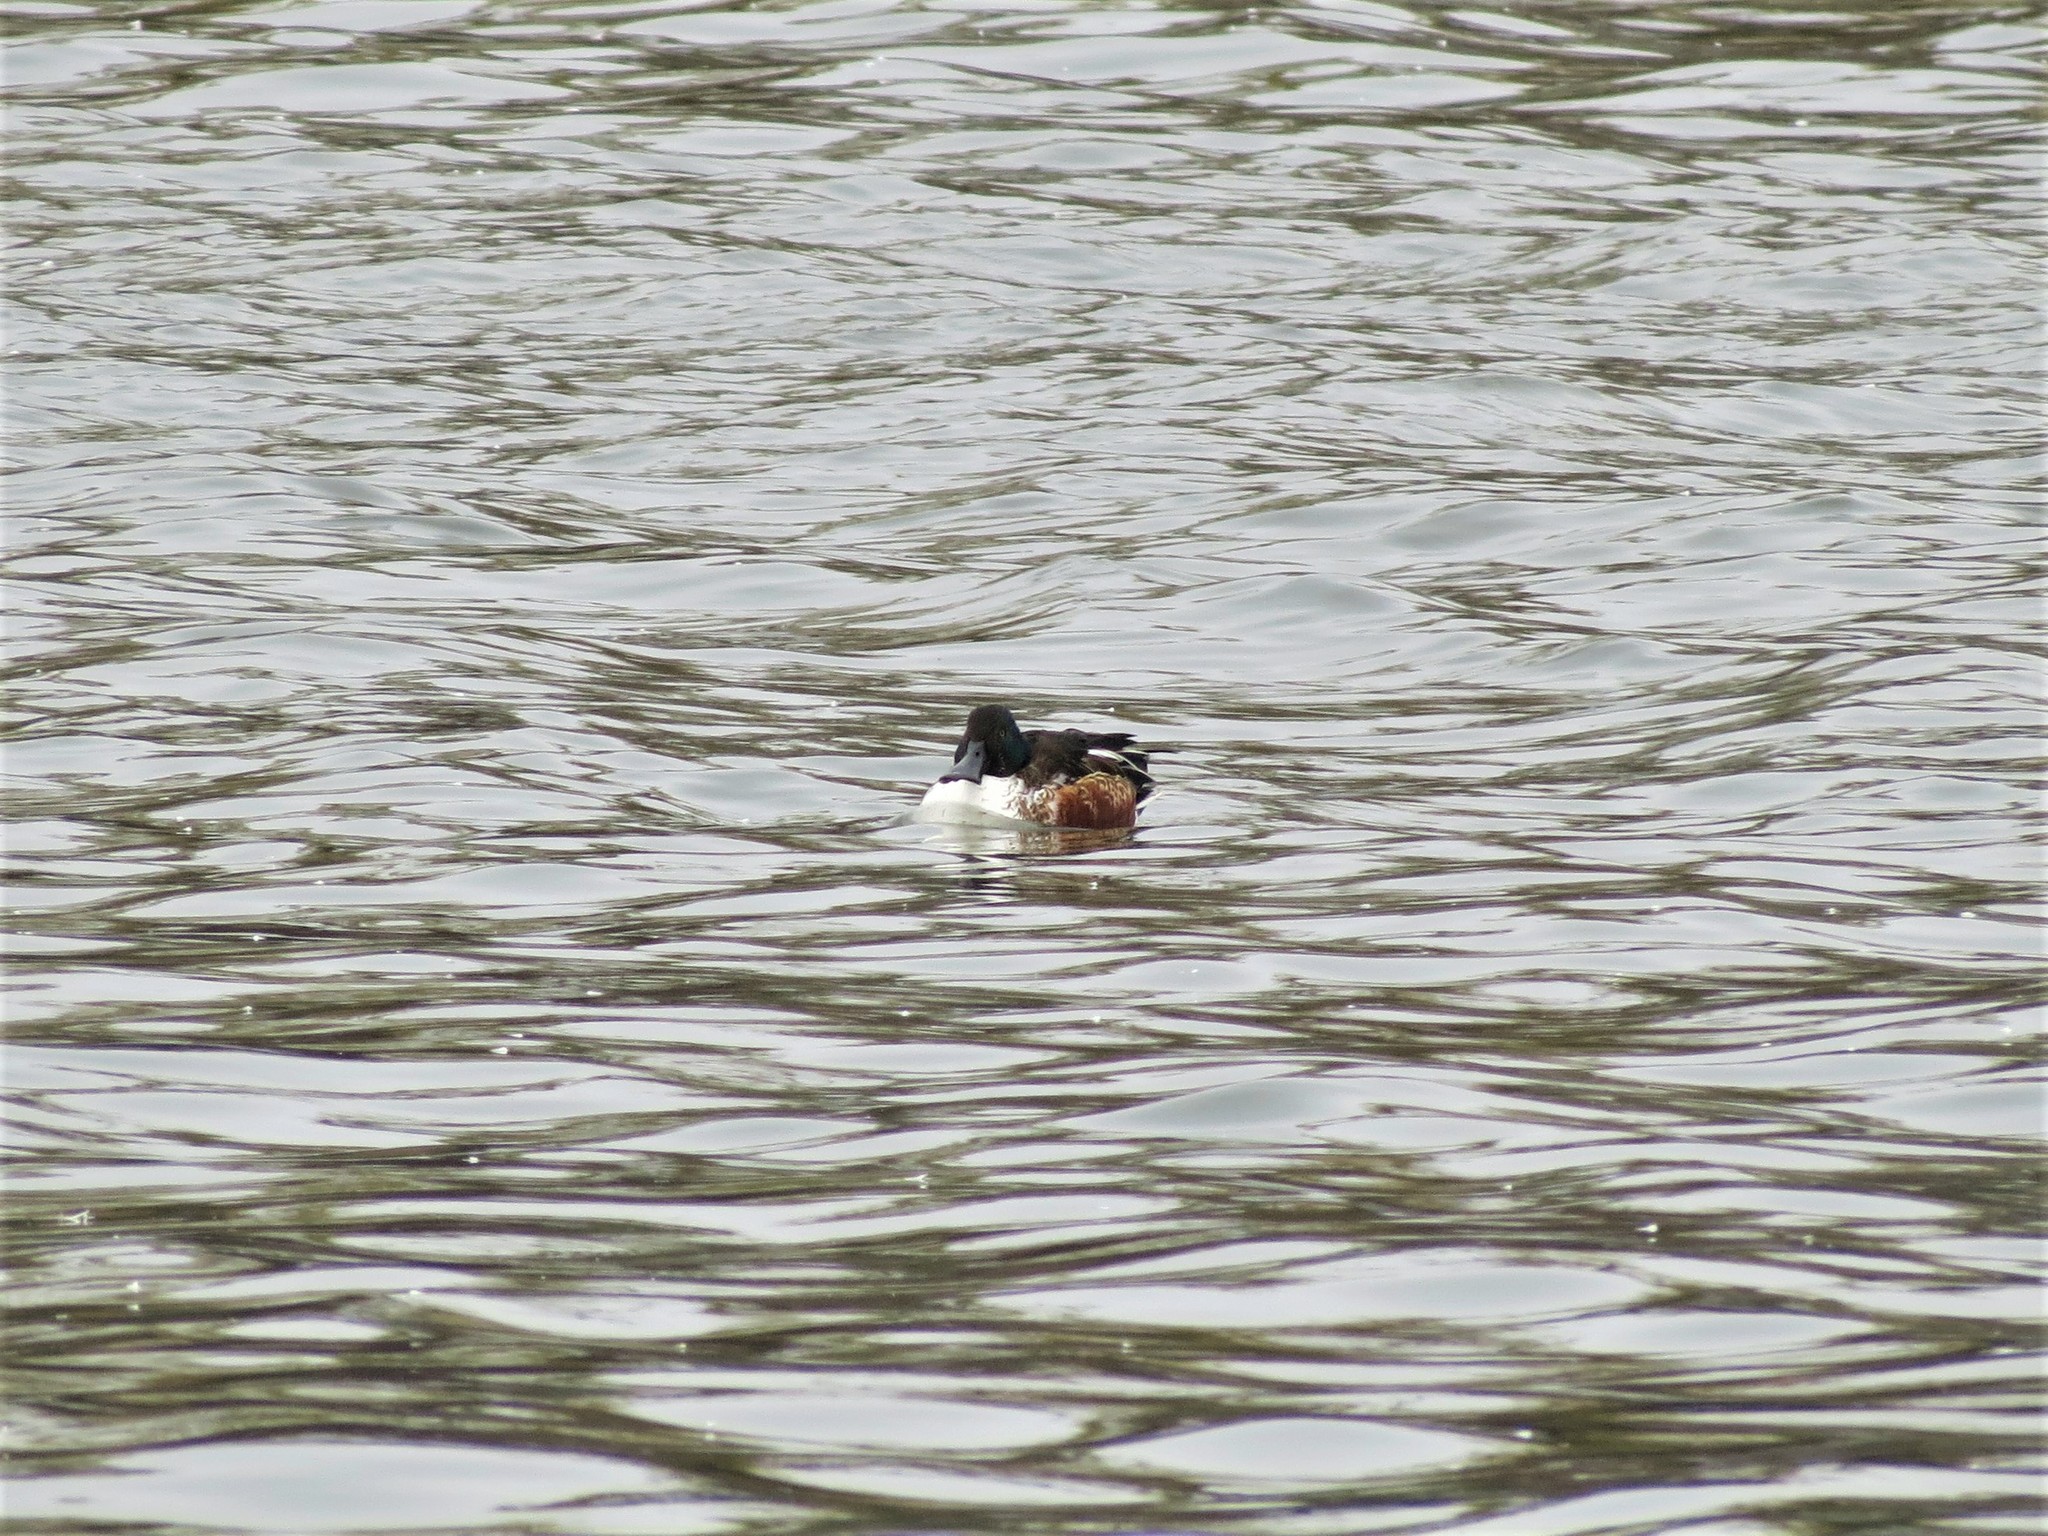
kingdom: Animalia
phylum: Chordata
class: Aves
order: Anseriformes
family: Anatidae
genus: Spatula
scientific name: Spatula clypeata
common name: Northern shoveler
